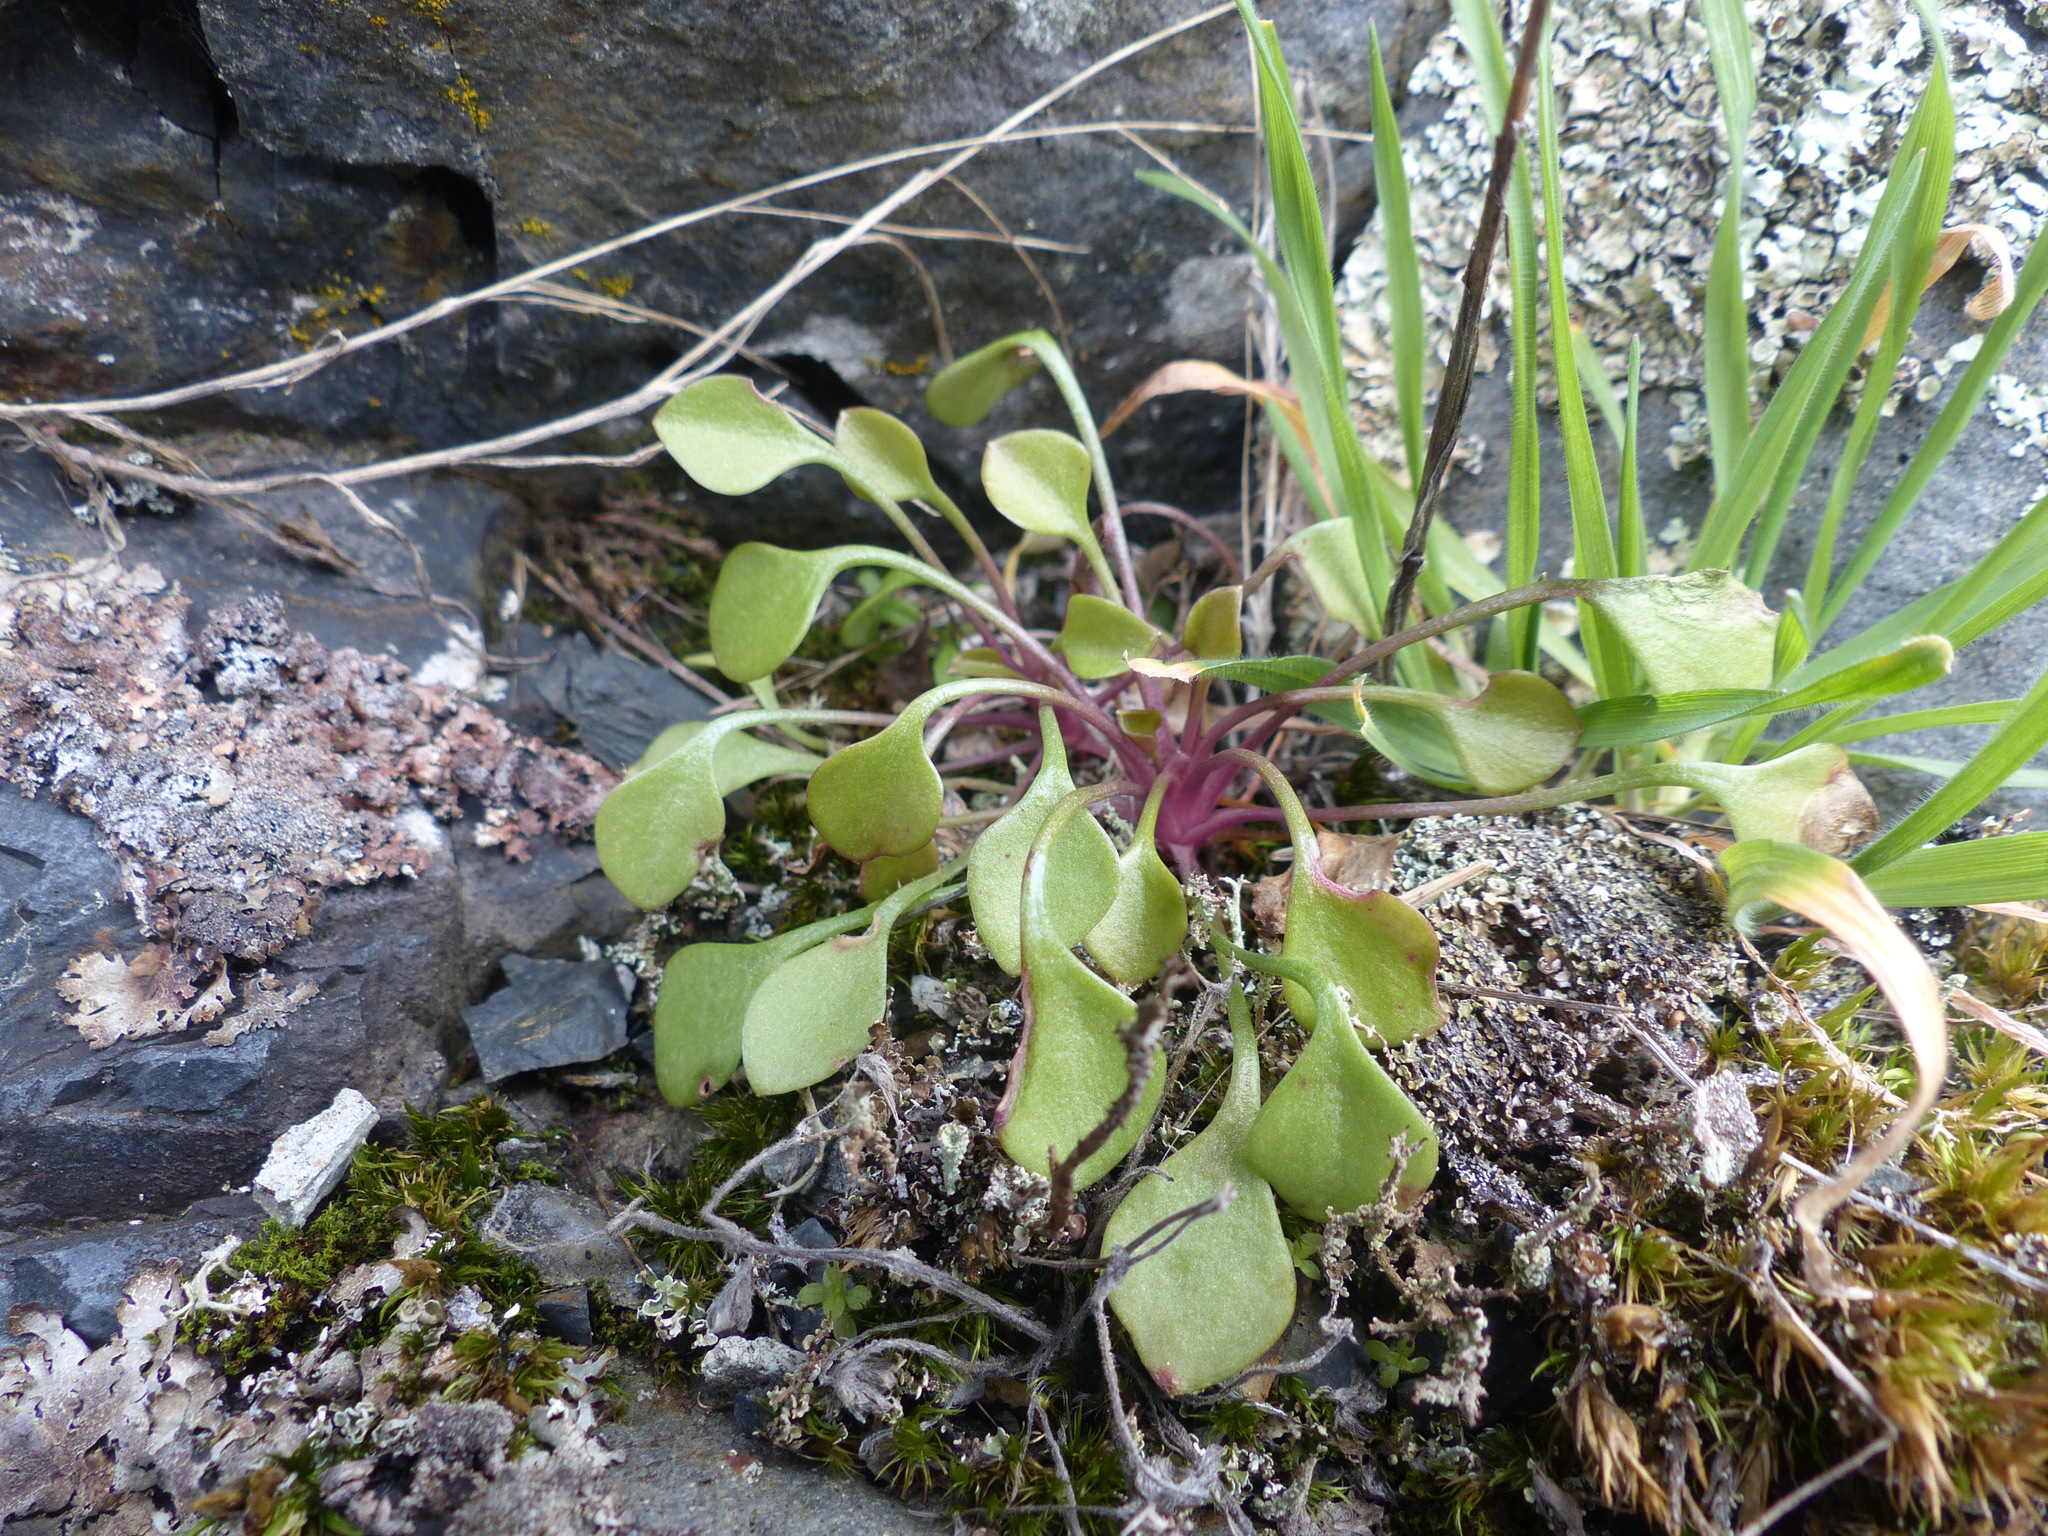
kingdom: Plantae
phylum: Tracheophyta
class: Magnoliopsida
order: Caryophyllales
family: Montiaceae
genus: Claytonia
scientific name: Claytonia rubra
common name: Erubescent miner's-lettuce
